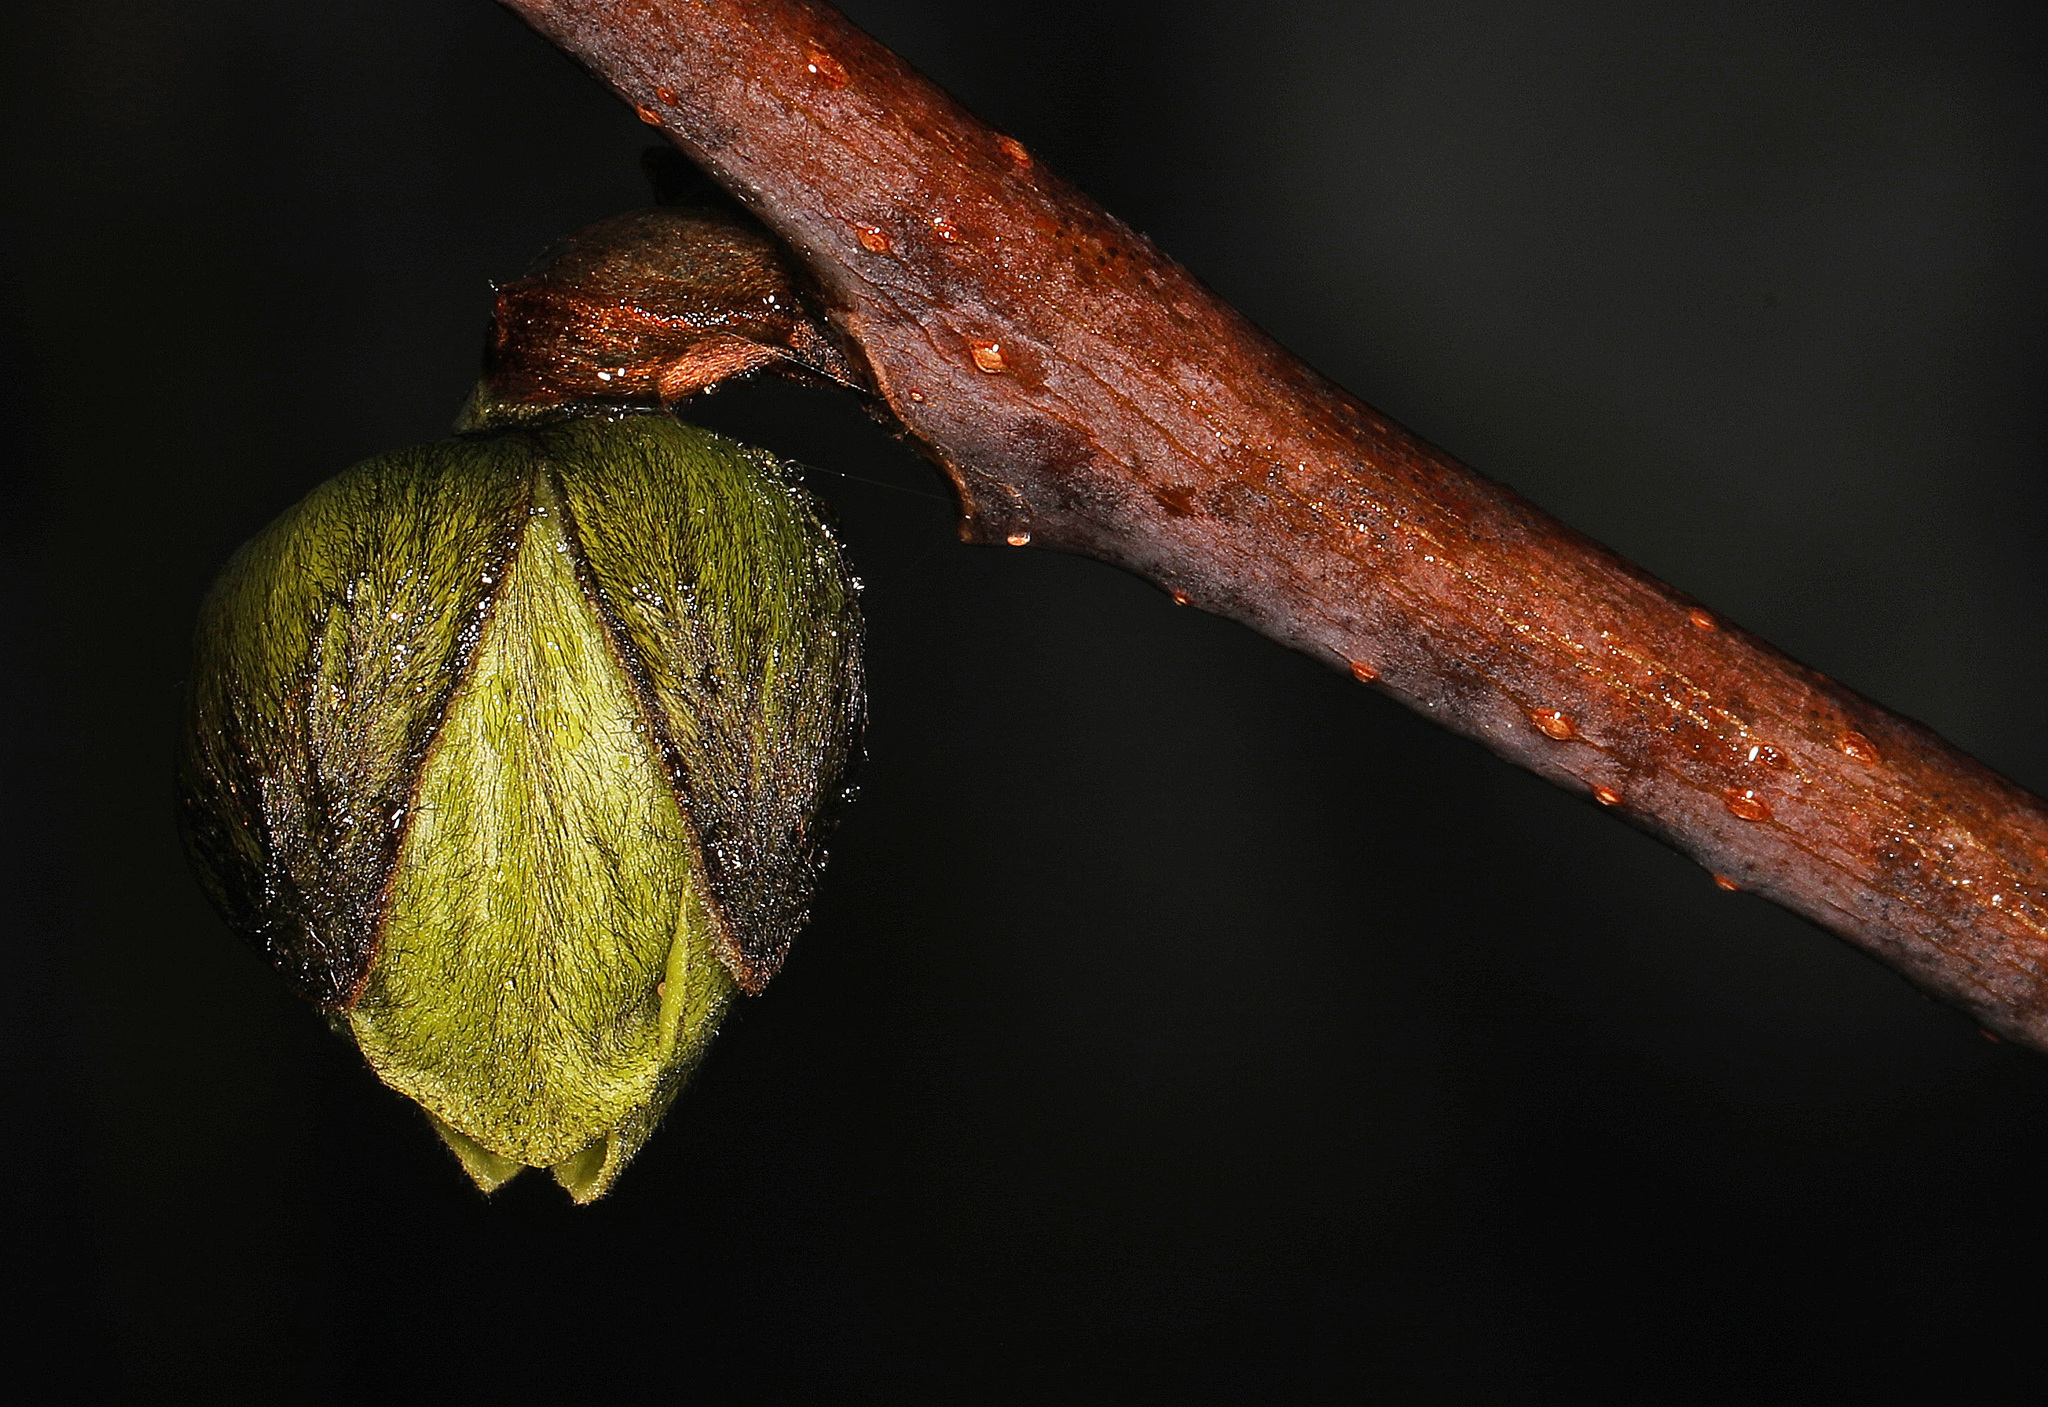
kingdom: Plantae
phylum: Tracheophyta
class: Magnoliopsida
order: Magnoliales
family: Annonaceae
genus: Asimina
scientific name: Asimina triloba
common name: Dog-banana
